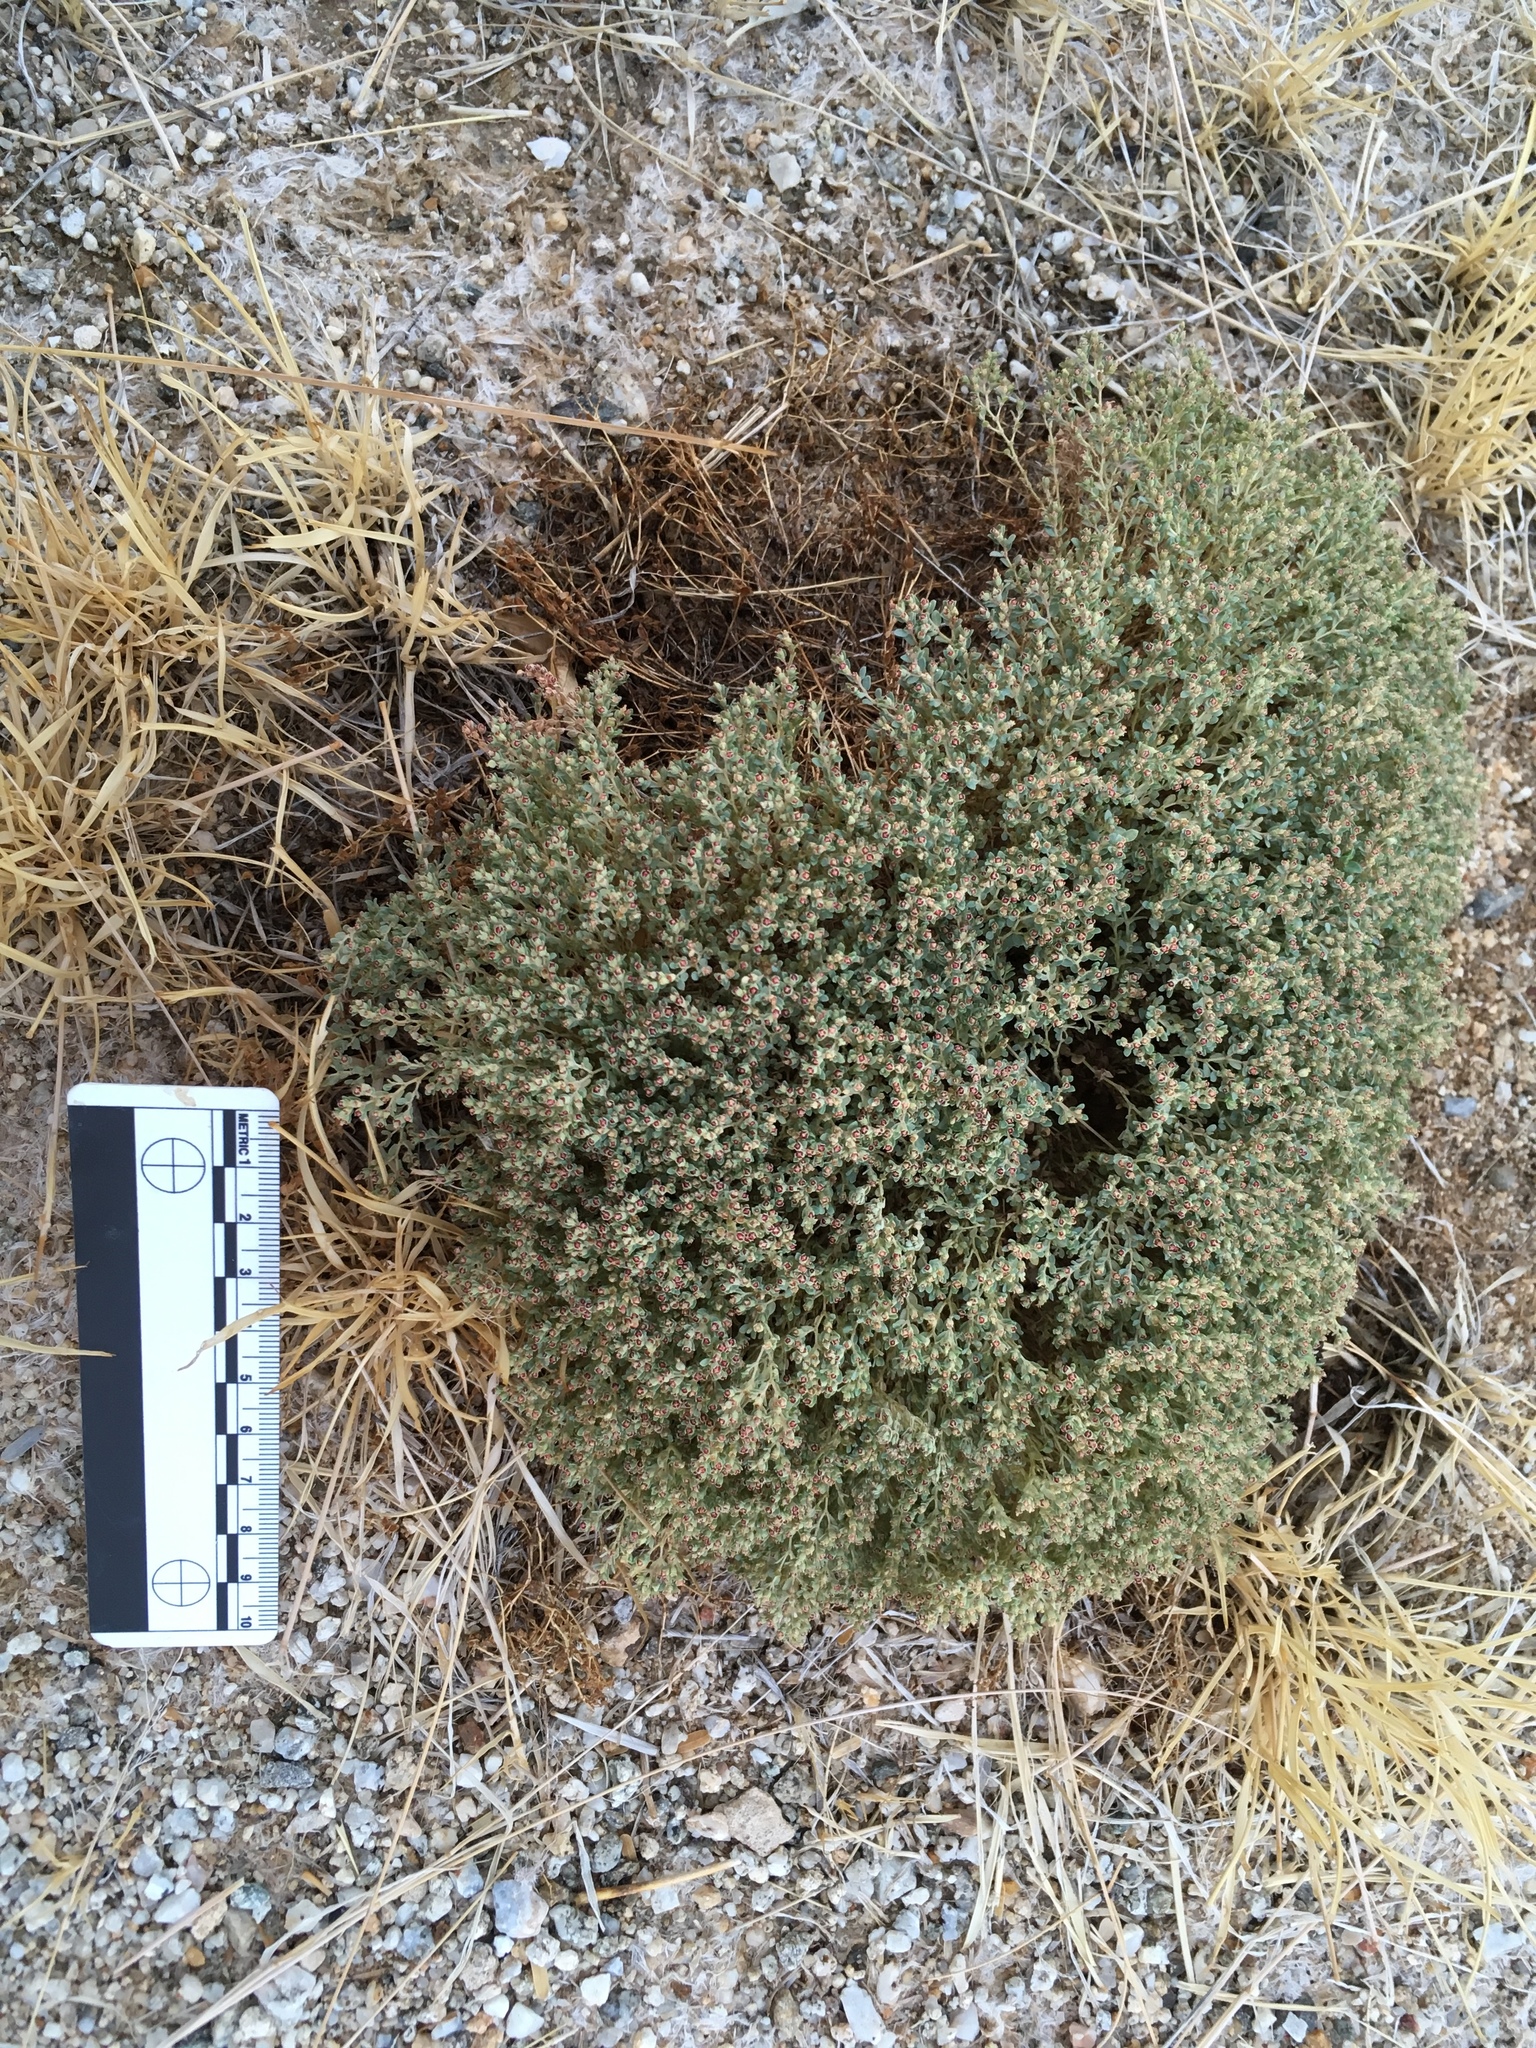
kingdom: Plantae
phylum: Tracheophyta
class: Magnoliopsida
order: Malpighiales
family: Euphorbiaceae
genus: Euphorbia
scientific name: Euphorbia polycarpa
